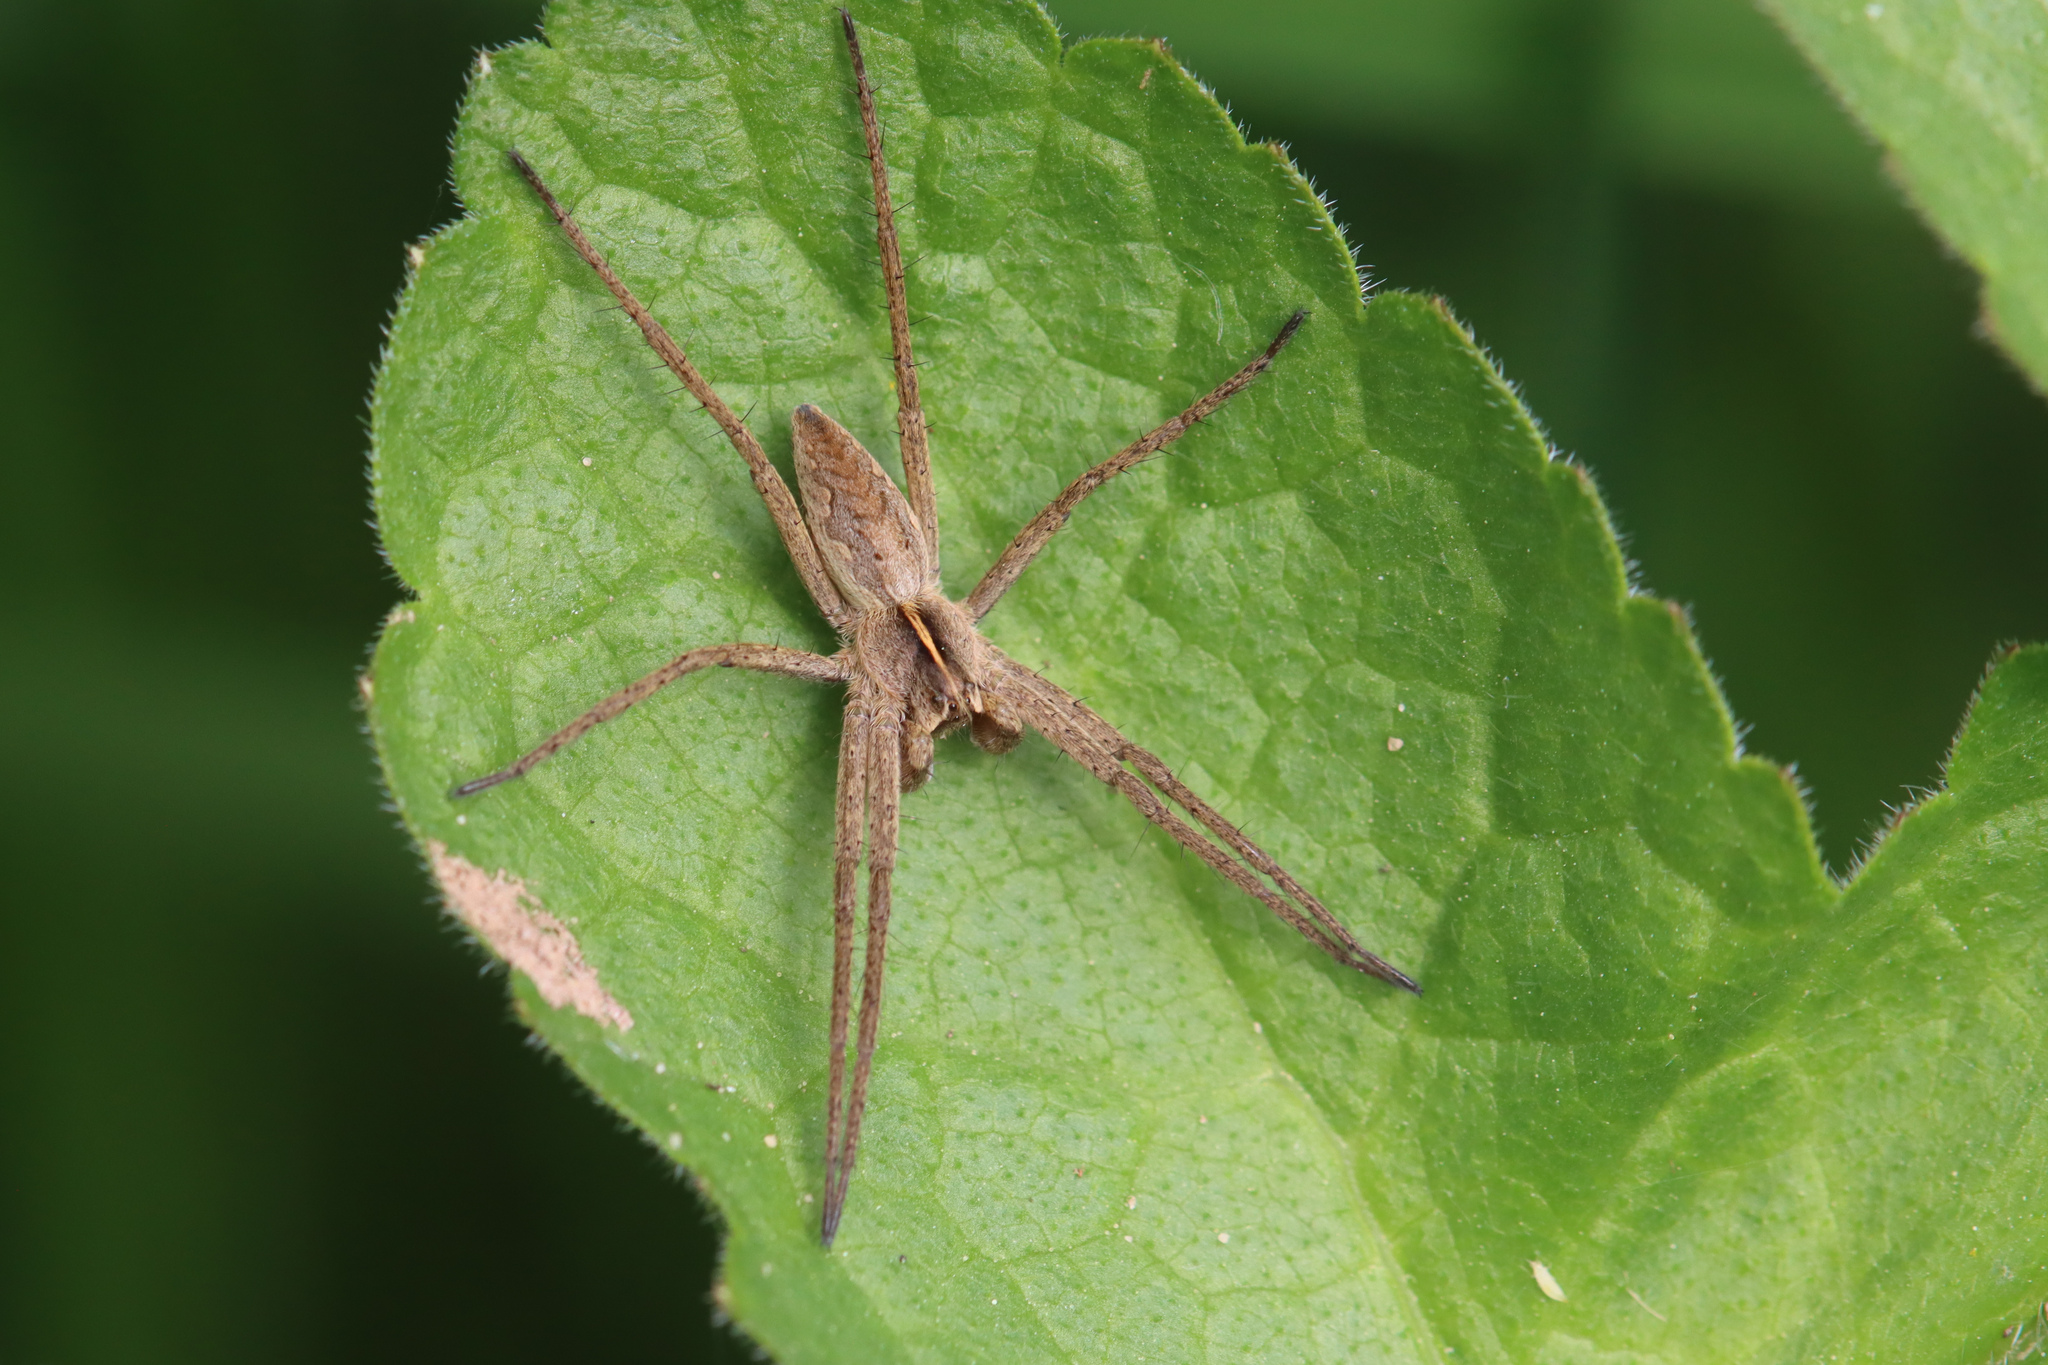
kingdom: Animalia
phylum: Arthropoda
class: Arachnida
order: Araneae
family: Pisauridae
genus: Pisaura
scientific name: Pisaura mirabilis
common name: Tent spider
